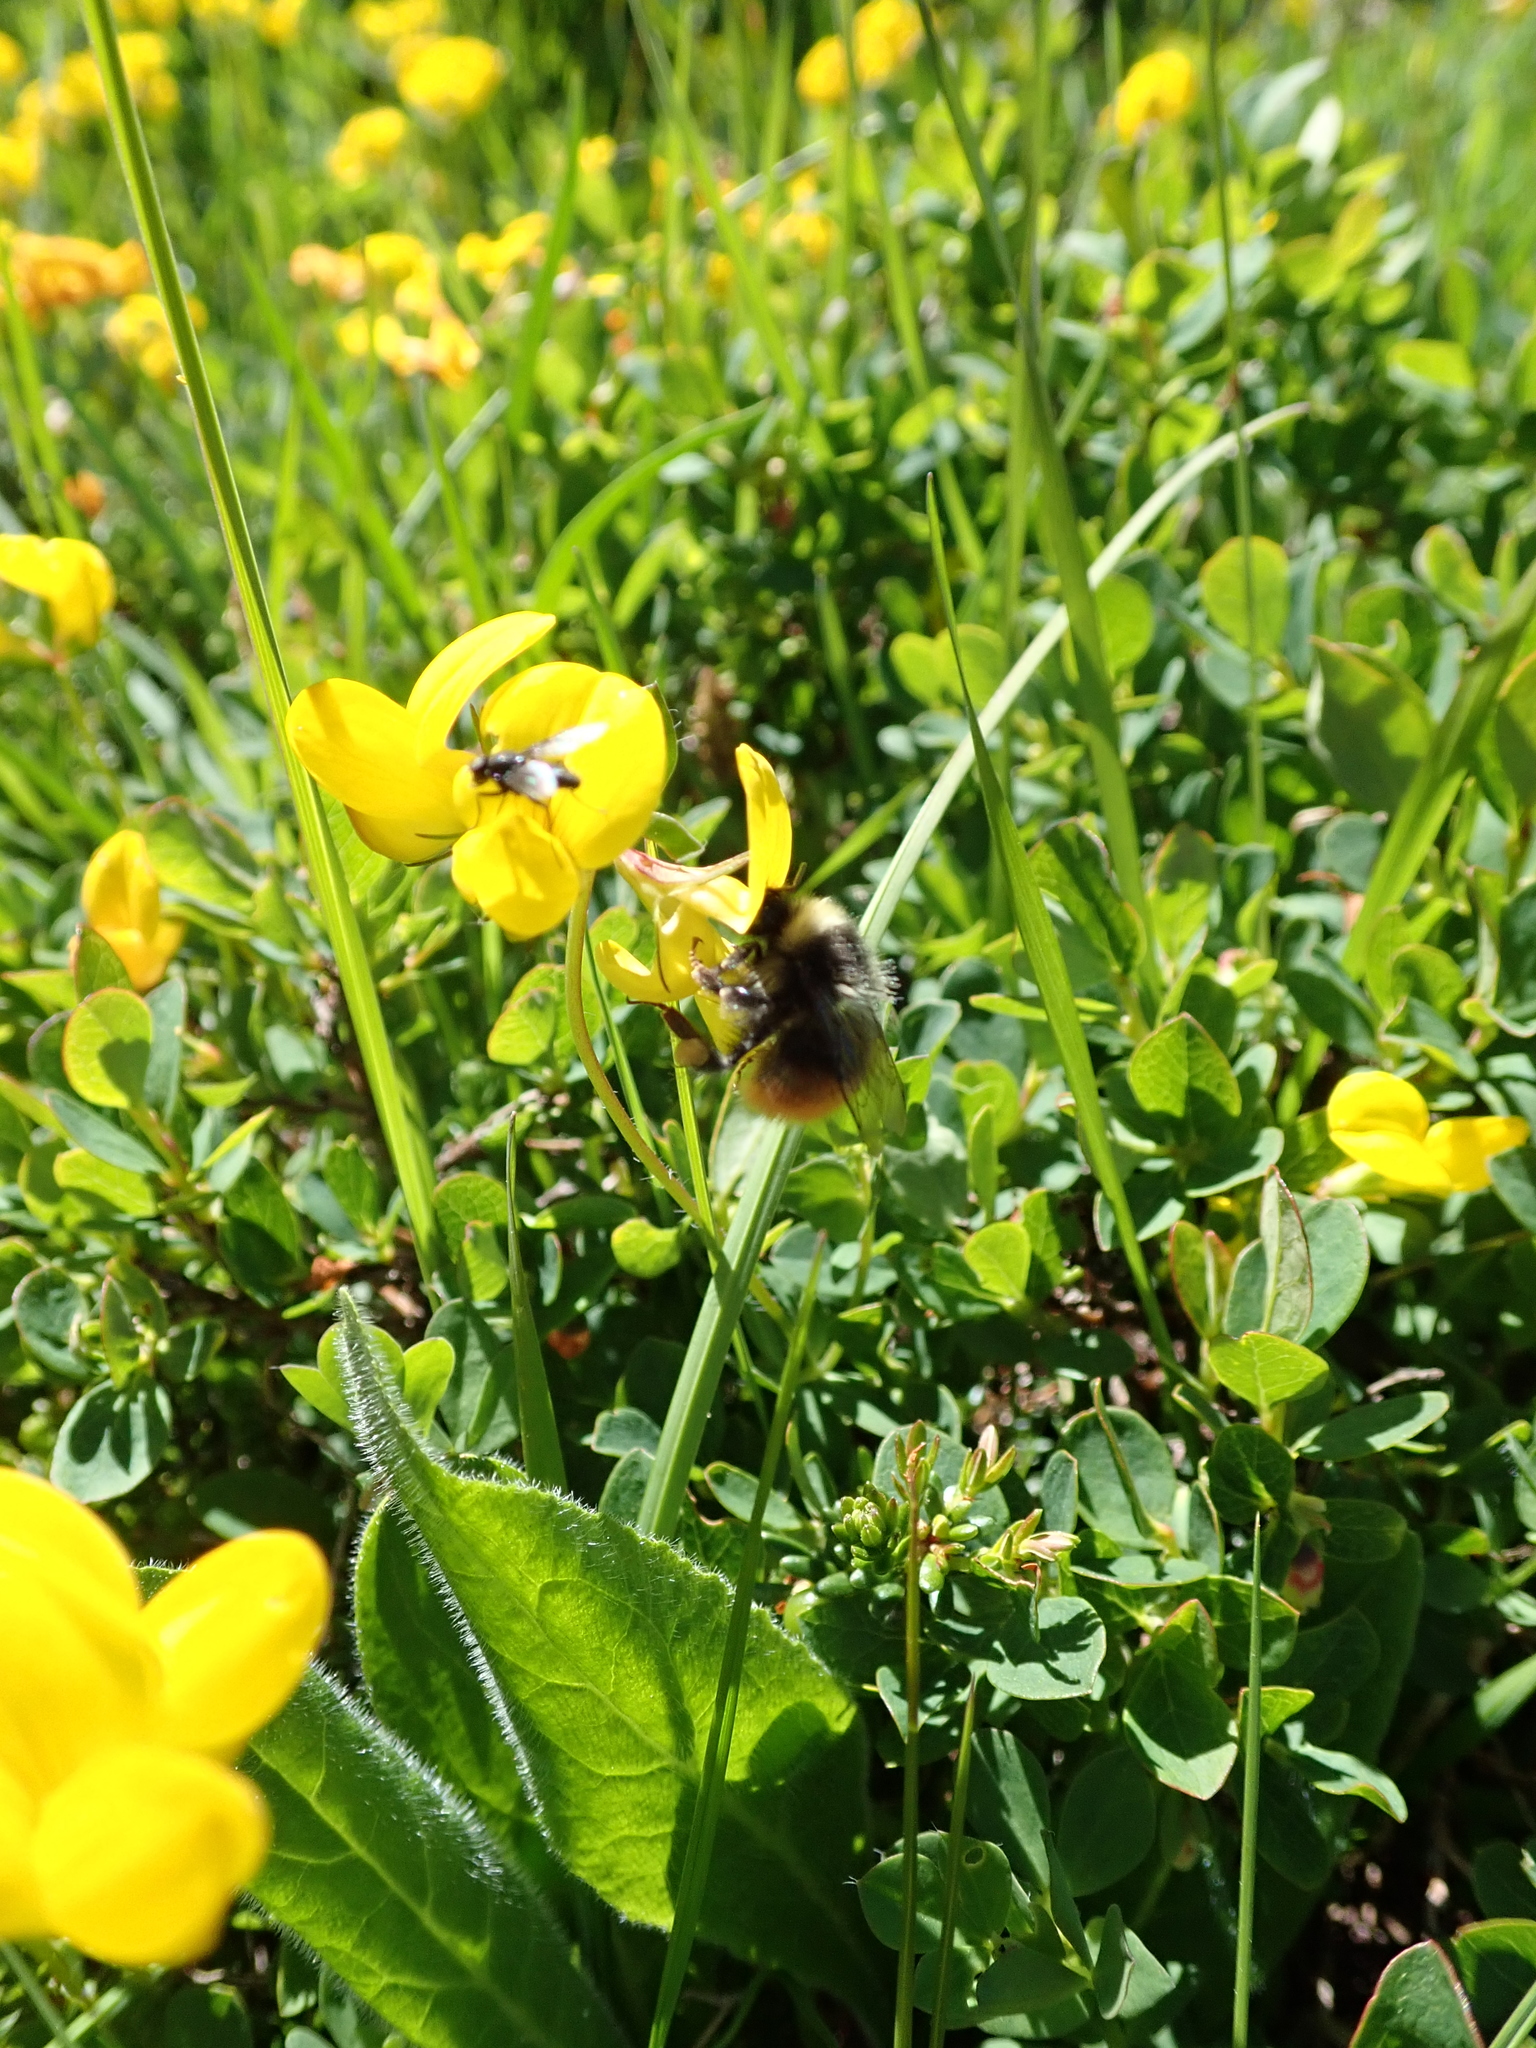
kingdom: Animalia
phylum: Arthropoda
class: Insecta
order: Hymenoptera
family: Apidae
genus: Bombus
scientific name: Bombus monticola
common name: Bilberry humble-bee
